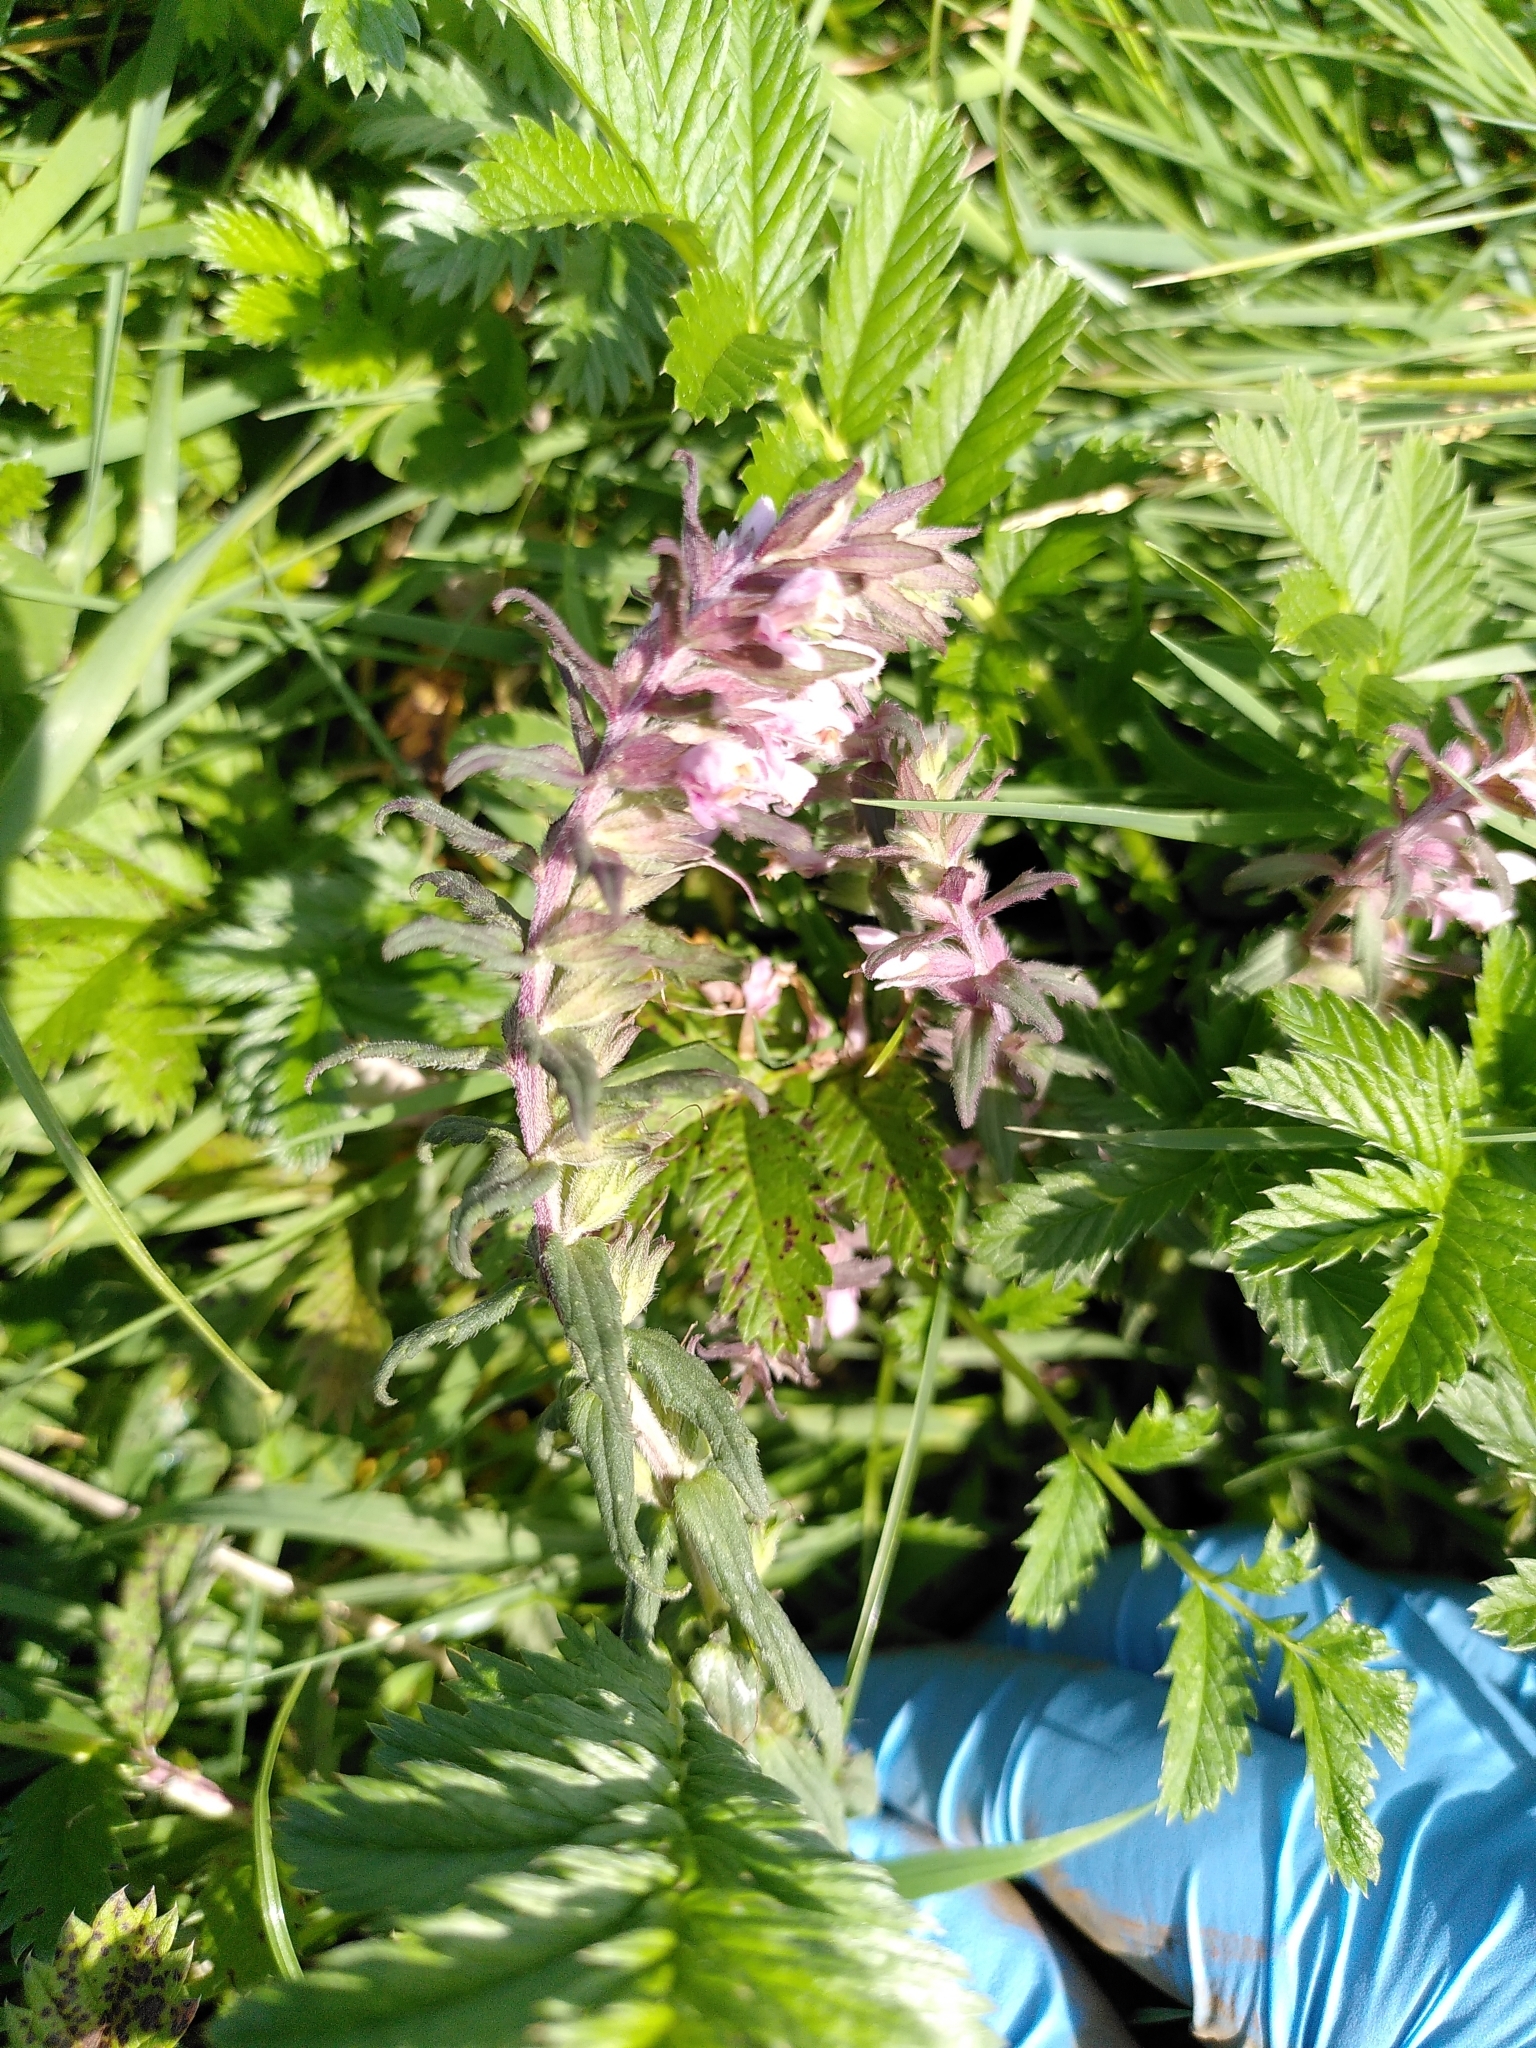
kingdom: Plantae
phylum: Tracheophyta
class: Magnoliopsida
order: Lamiales
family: Orobanchaceae
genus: Odontites
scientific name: Odontites vulgaris
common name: Broomrape
